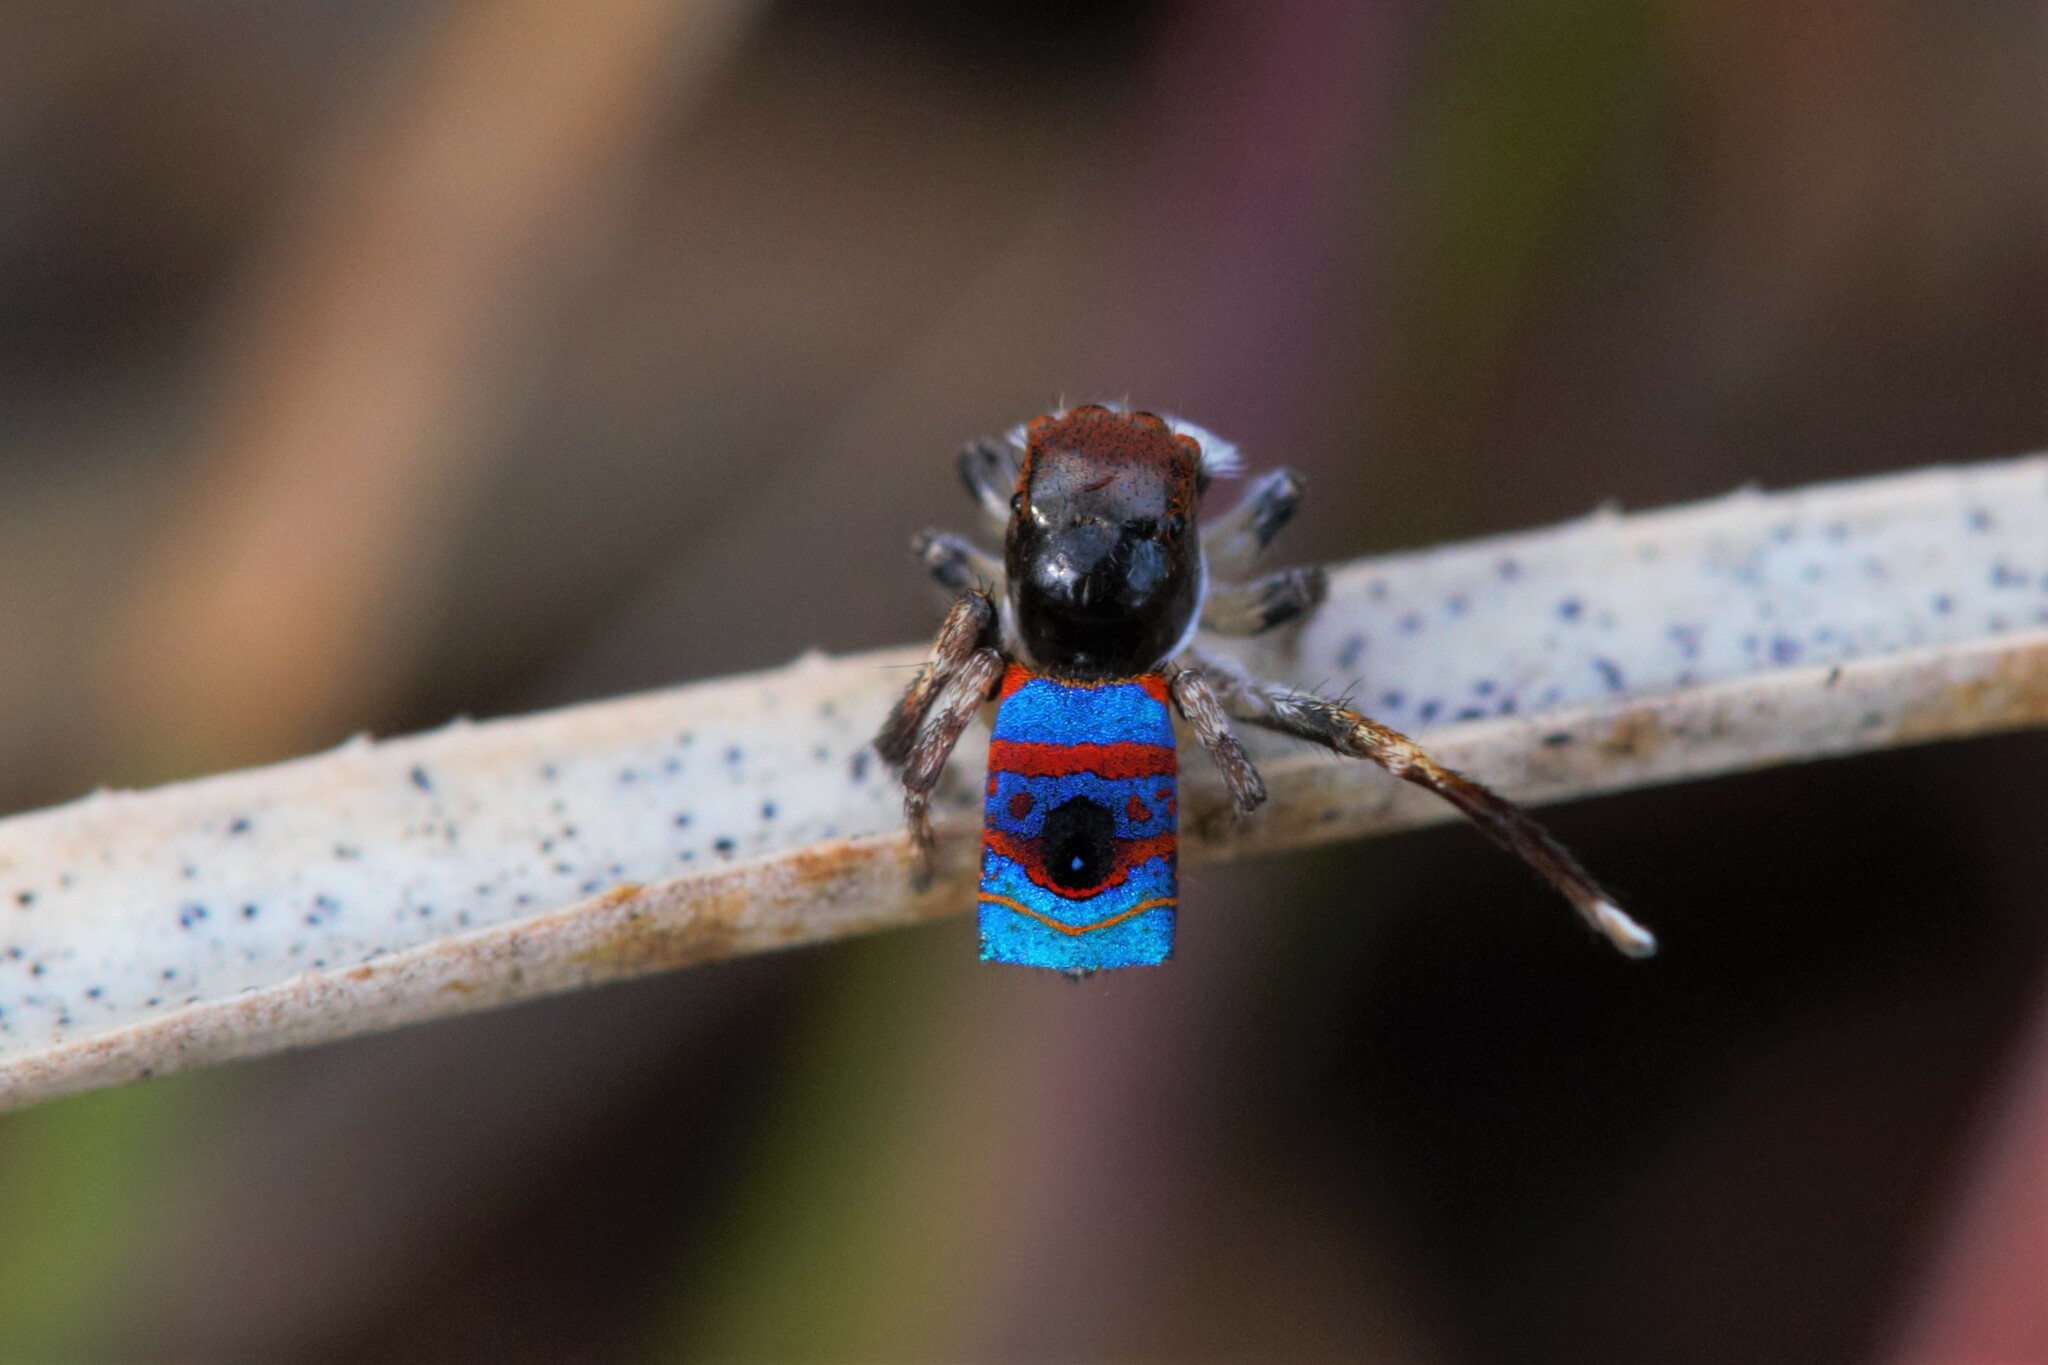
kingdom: Animalia
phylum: Arthropoda
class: Arachnida
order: Araneae
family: Salticidae
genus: Maratus
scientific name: Maratus gemmifer
